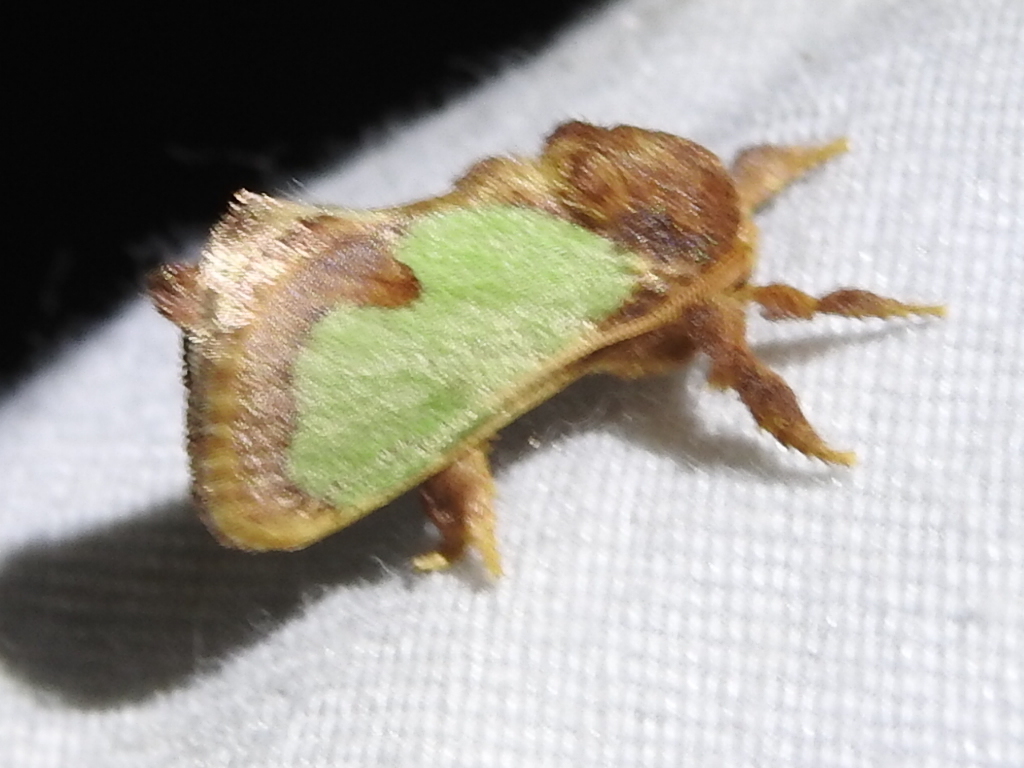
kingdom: Animalia
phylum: Arthropoda
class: Insecta
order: Lepidoptera
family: Limacodidae
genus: Euclea
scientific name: Euclea incisa
